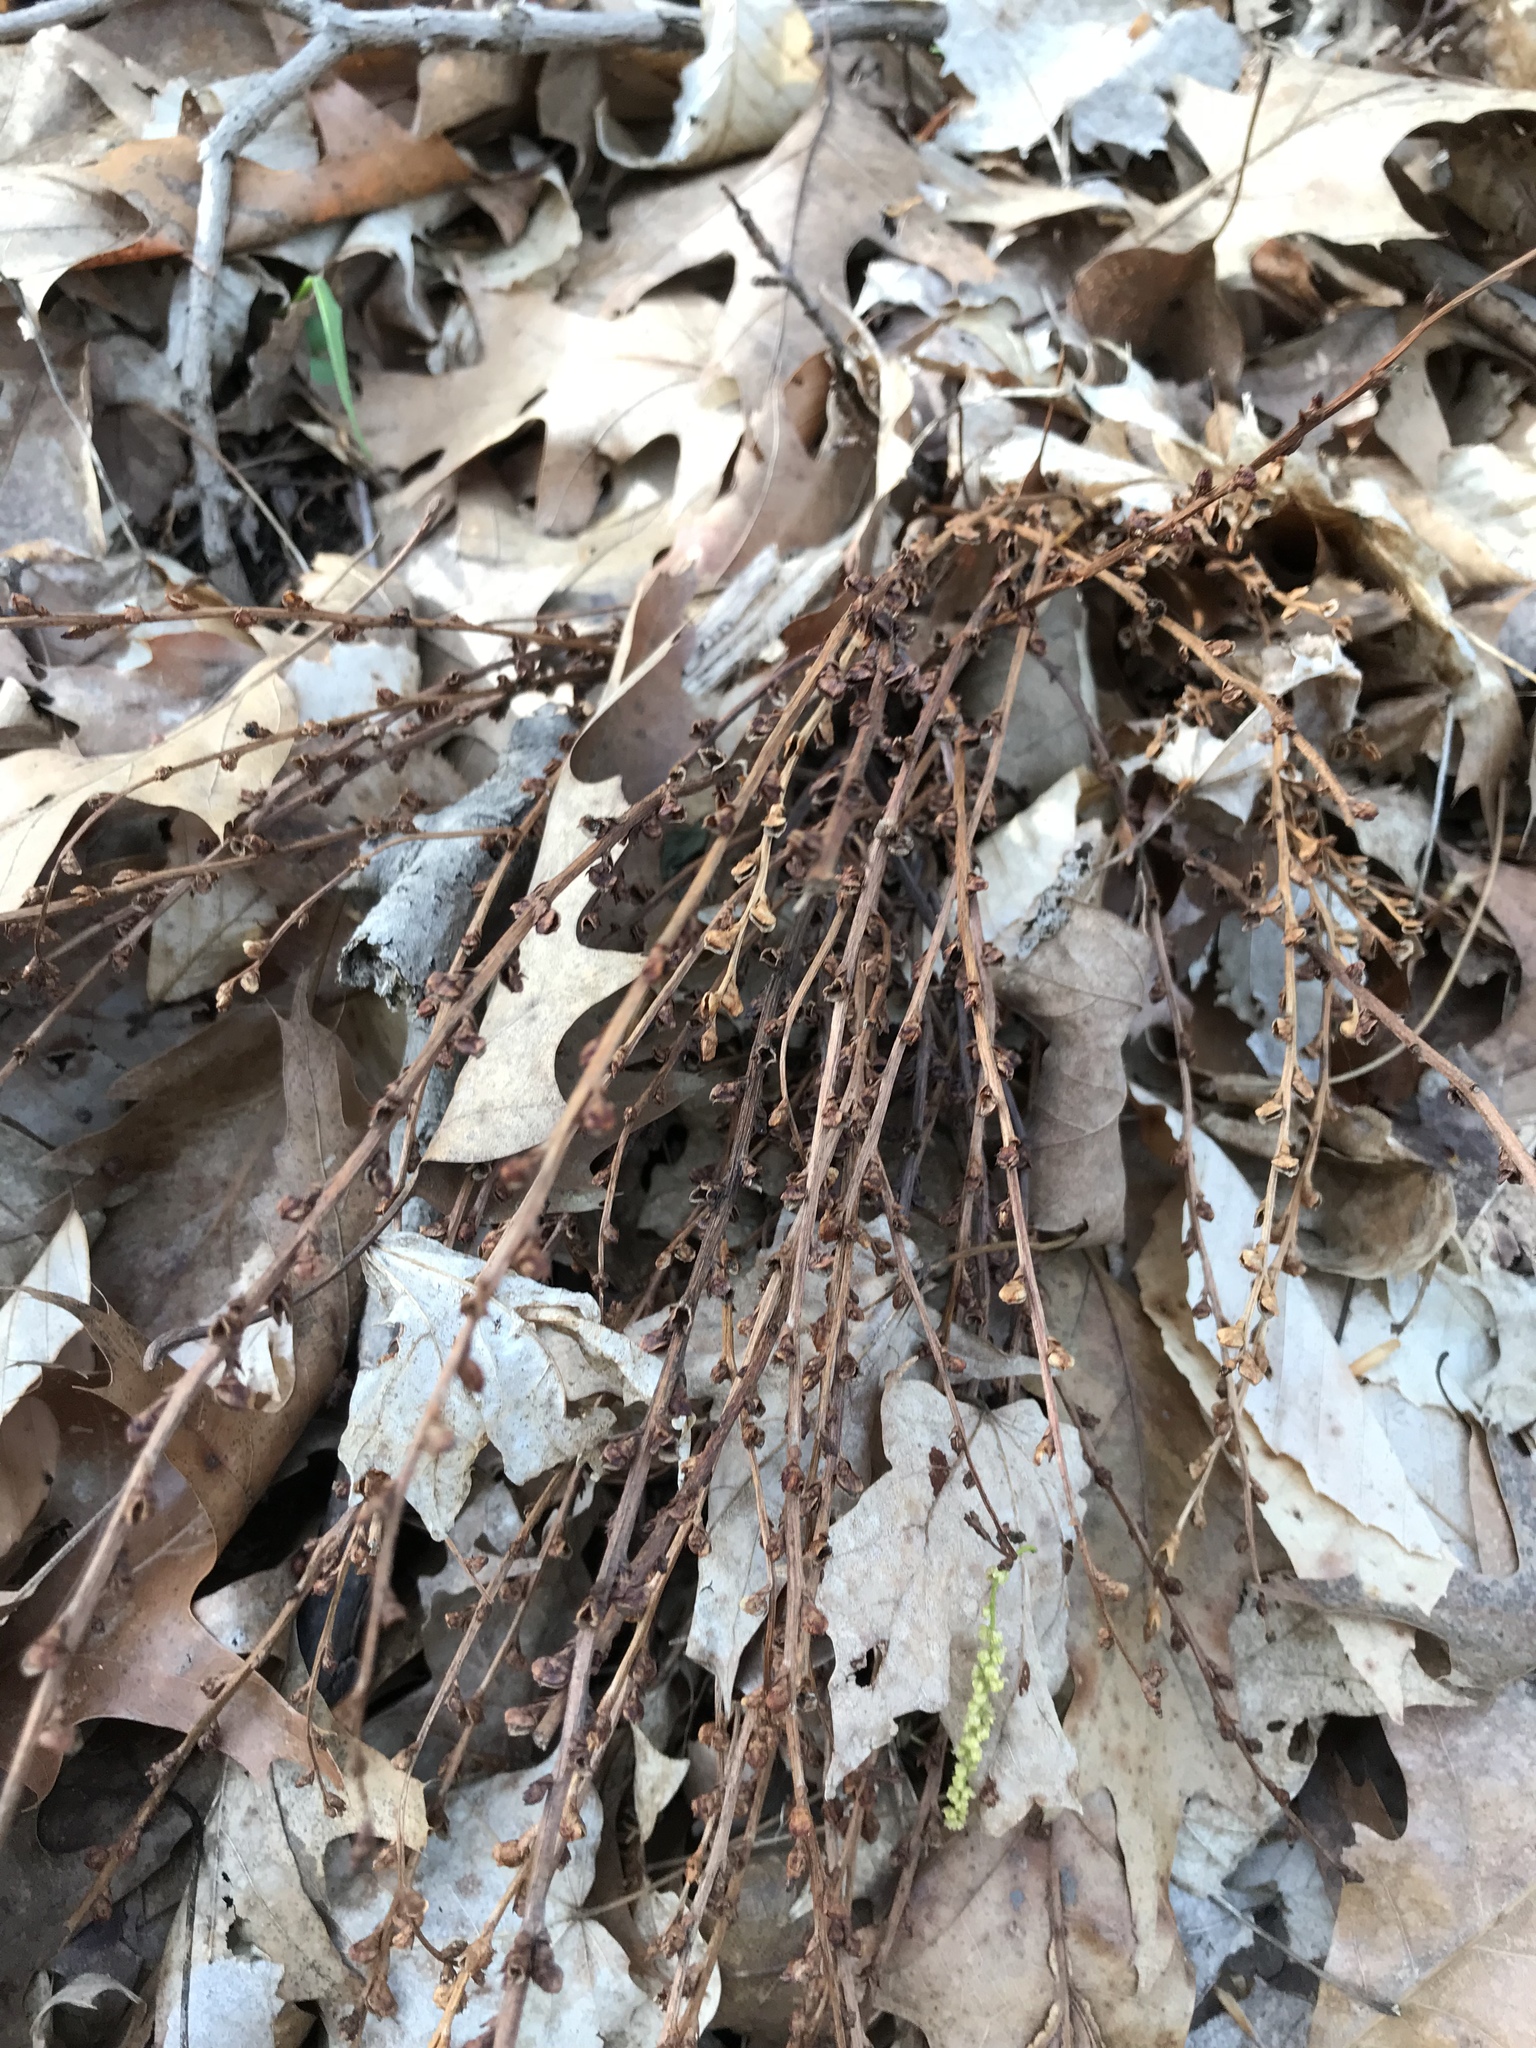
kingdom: Plantae
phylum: Tracheophyta
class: Magnoliopsida
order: Lamiales
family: Orobanchaceae
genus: Epifagus
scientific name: Epifagus virginiana
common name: Beechdrops
